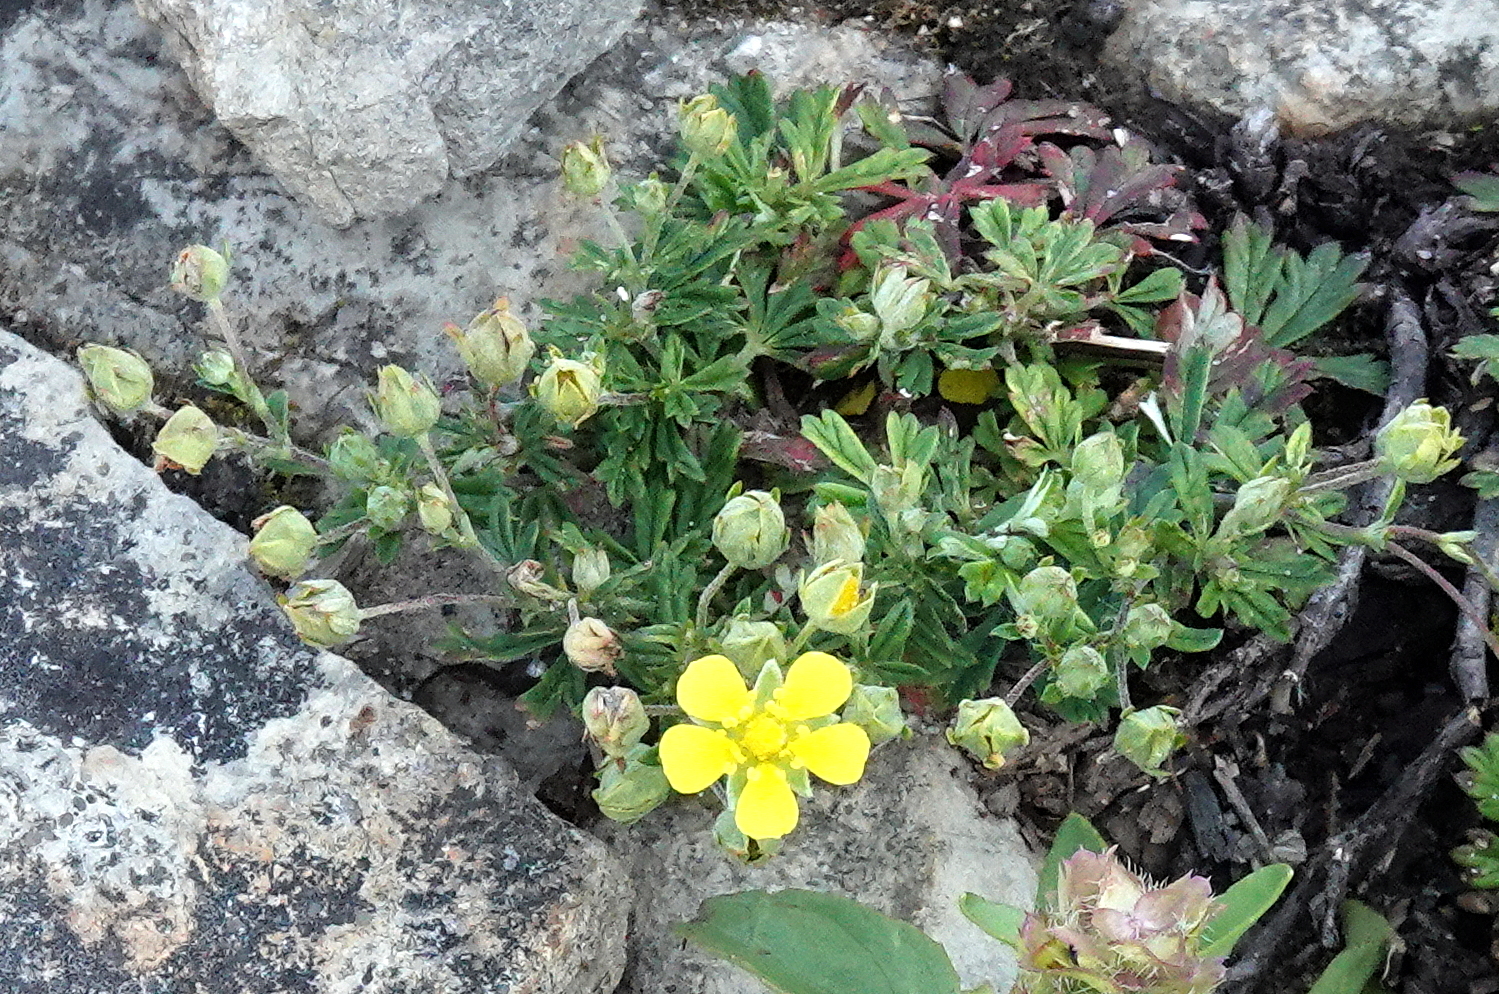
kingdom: Plantae
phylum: Tracheophyta
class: Magnoliopsida
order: Rosales
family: Rosaceae
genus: Potentilla
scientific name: Potentilla argentea
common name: Hoary cinquefoil
